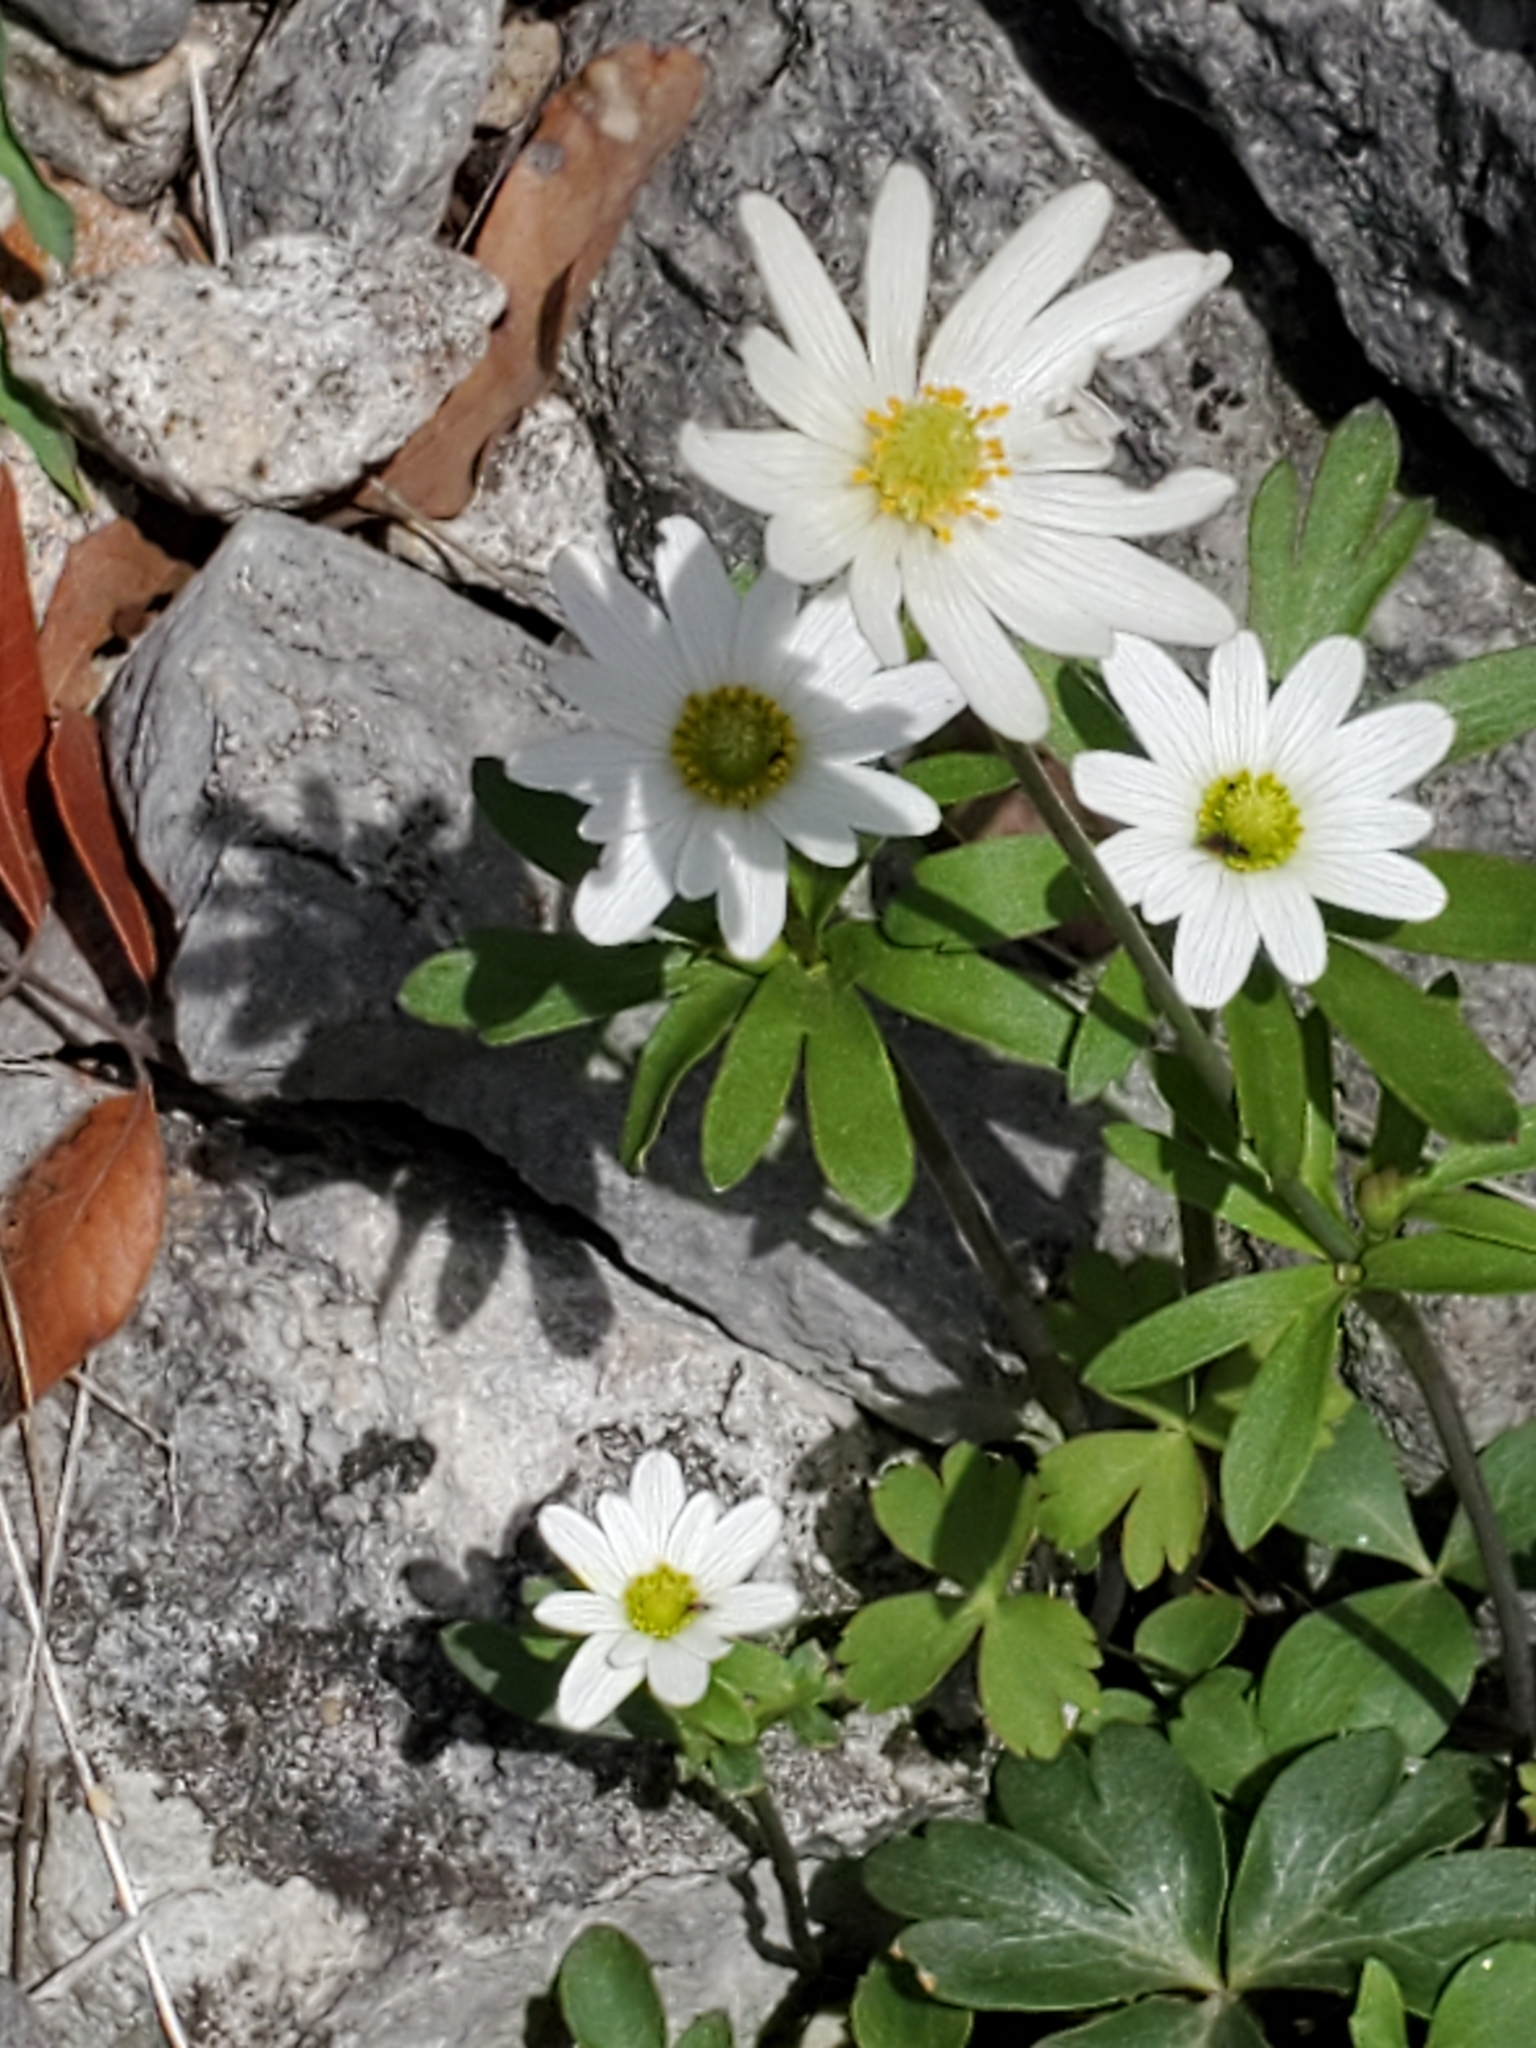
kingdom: Plantae
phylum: Tracheophyta
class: Magnoliopsida
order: Ranunculales
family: Ranunculaceae
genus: Anemone
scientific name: Anemone edwardsiana
